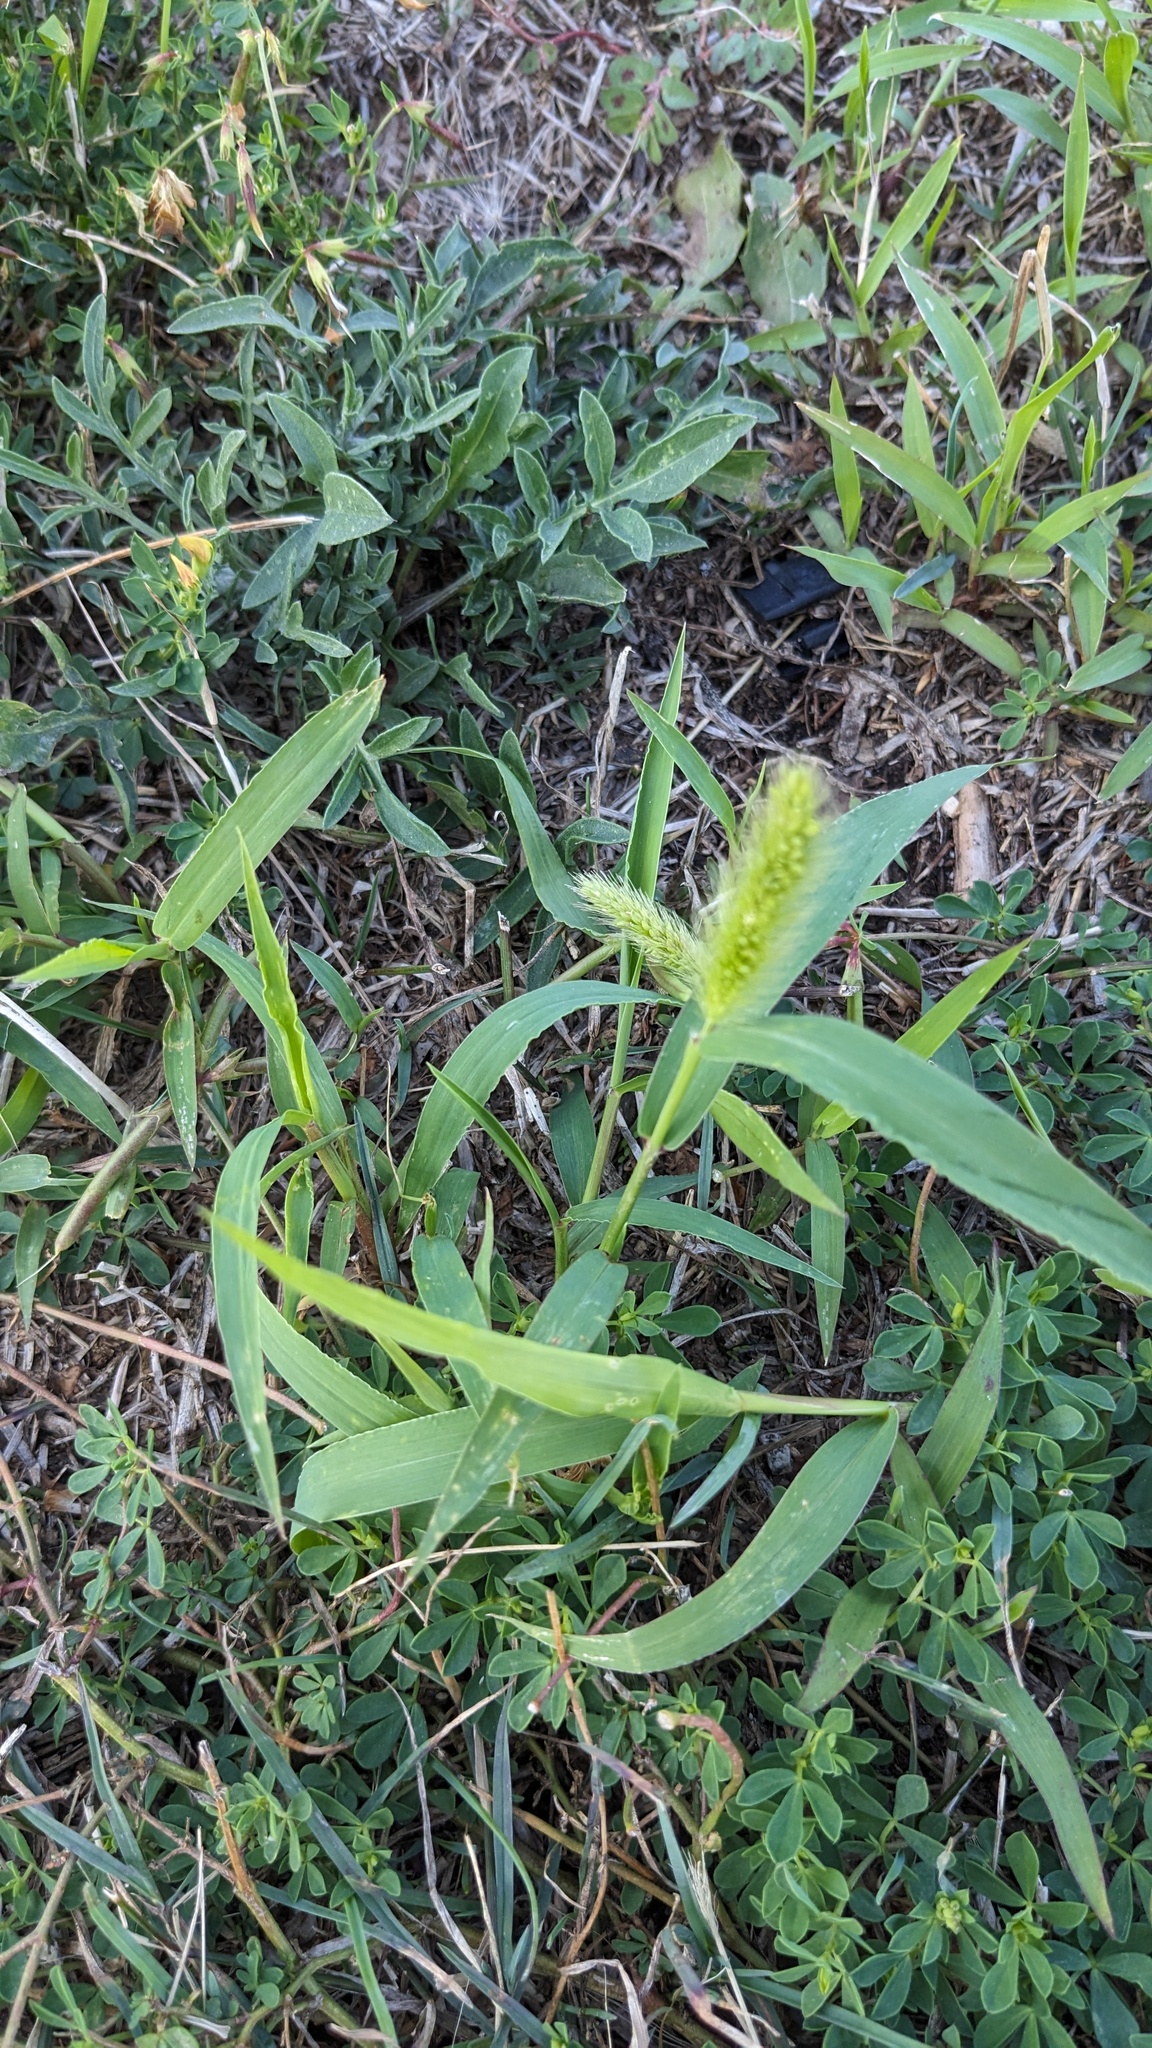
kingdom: Plantae
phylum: Tracheophyta
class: Liliopsida
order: Poales
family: Poaceae
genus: Setaria
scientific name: Setaria viridis
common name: Green bristlegrass
